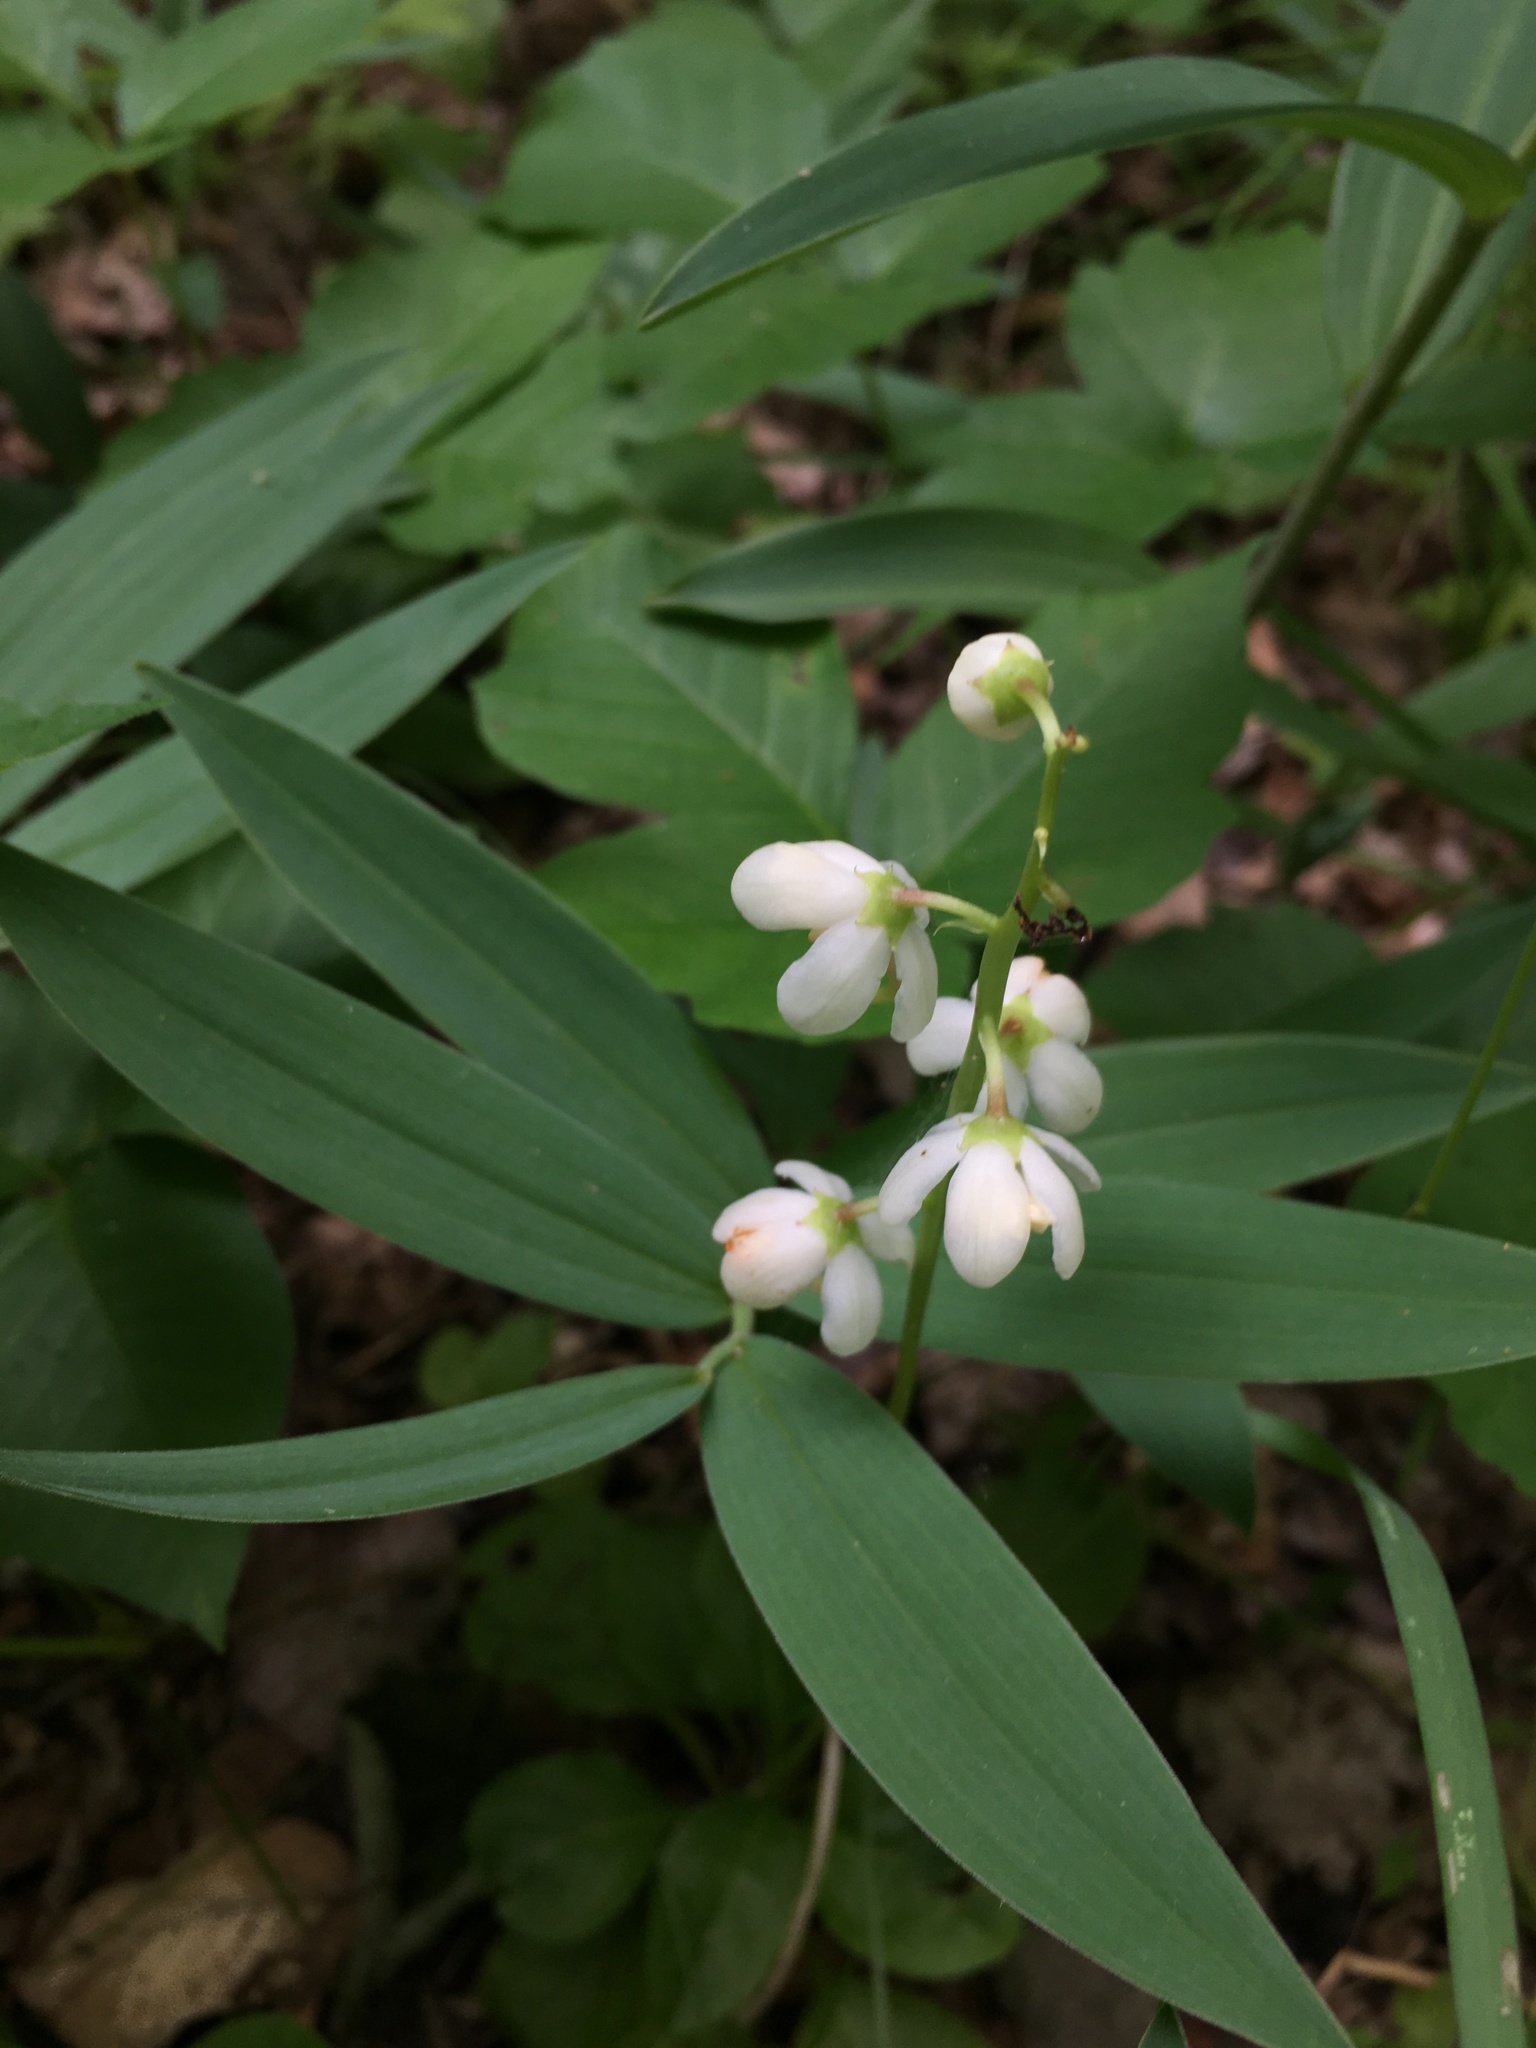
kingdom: Plantae
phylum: Tracheophyta
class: Magnoliopsida
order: Ericales
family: Ericaceae
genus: Pyrola
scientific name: Pyrola elliptica
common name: Shinleaf
